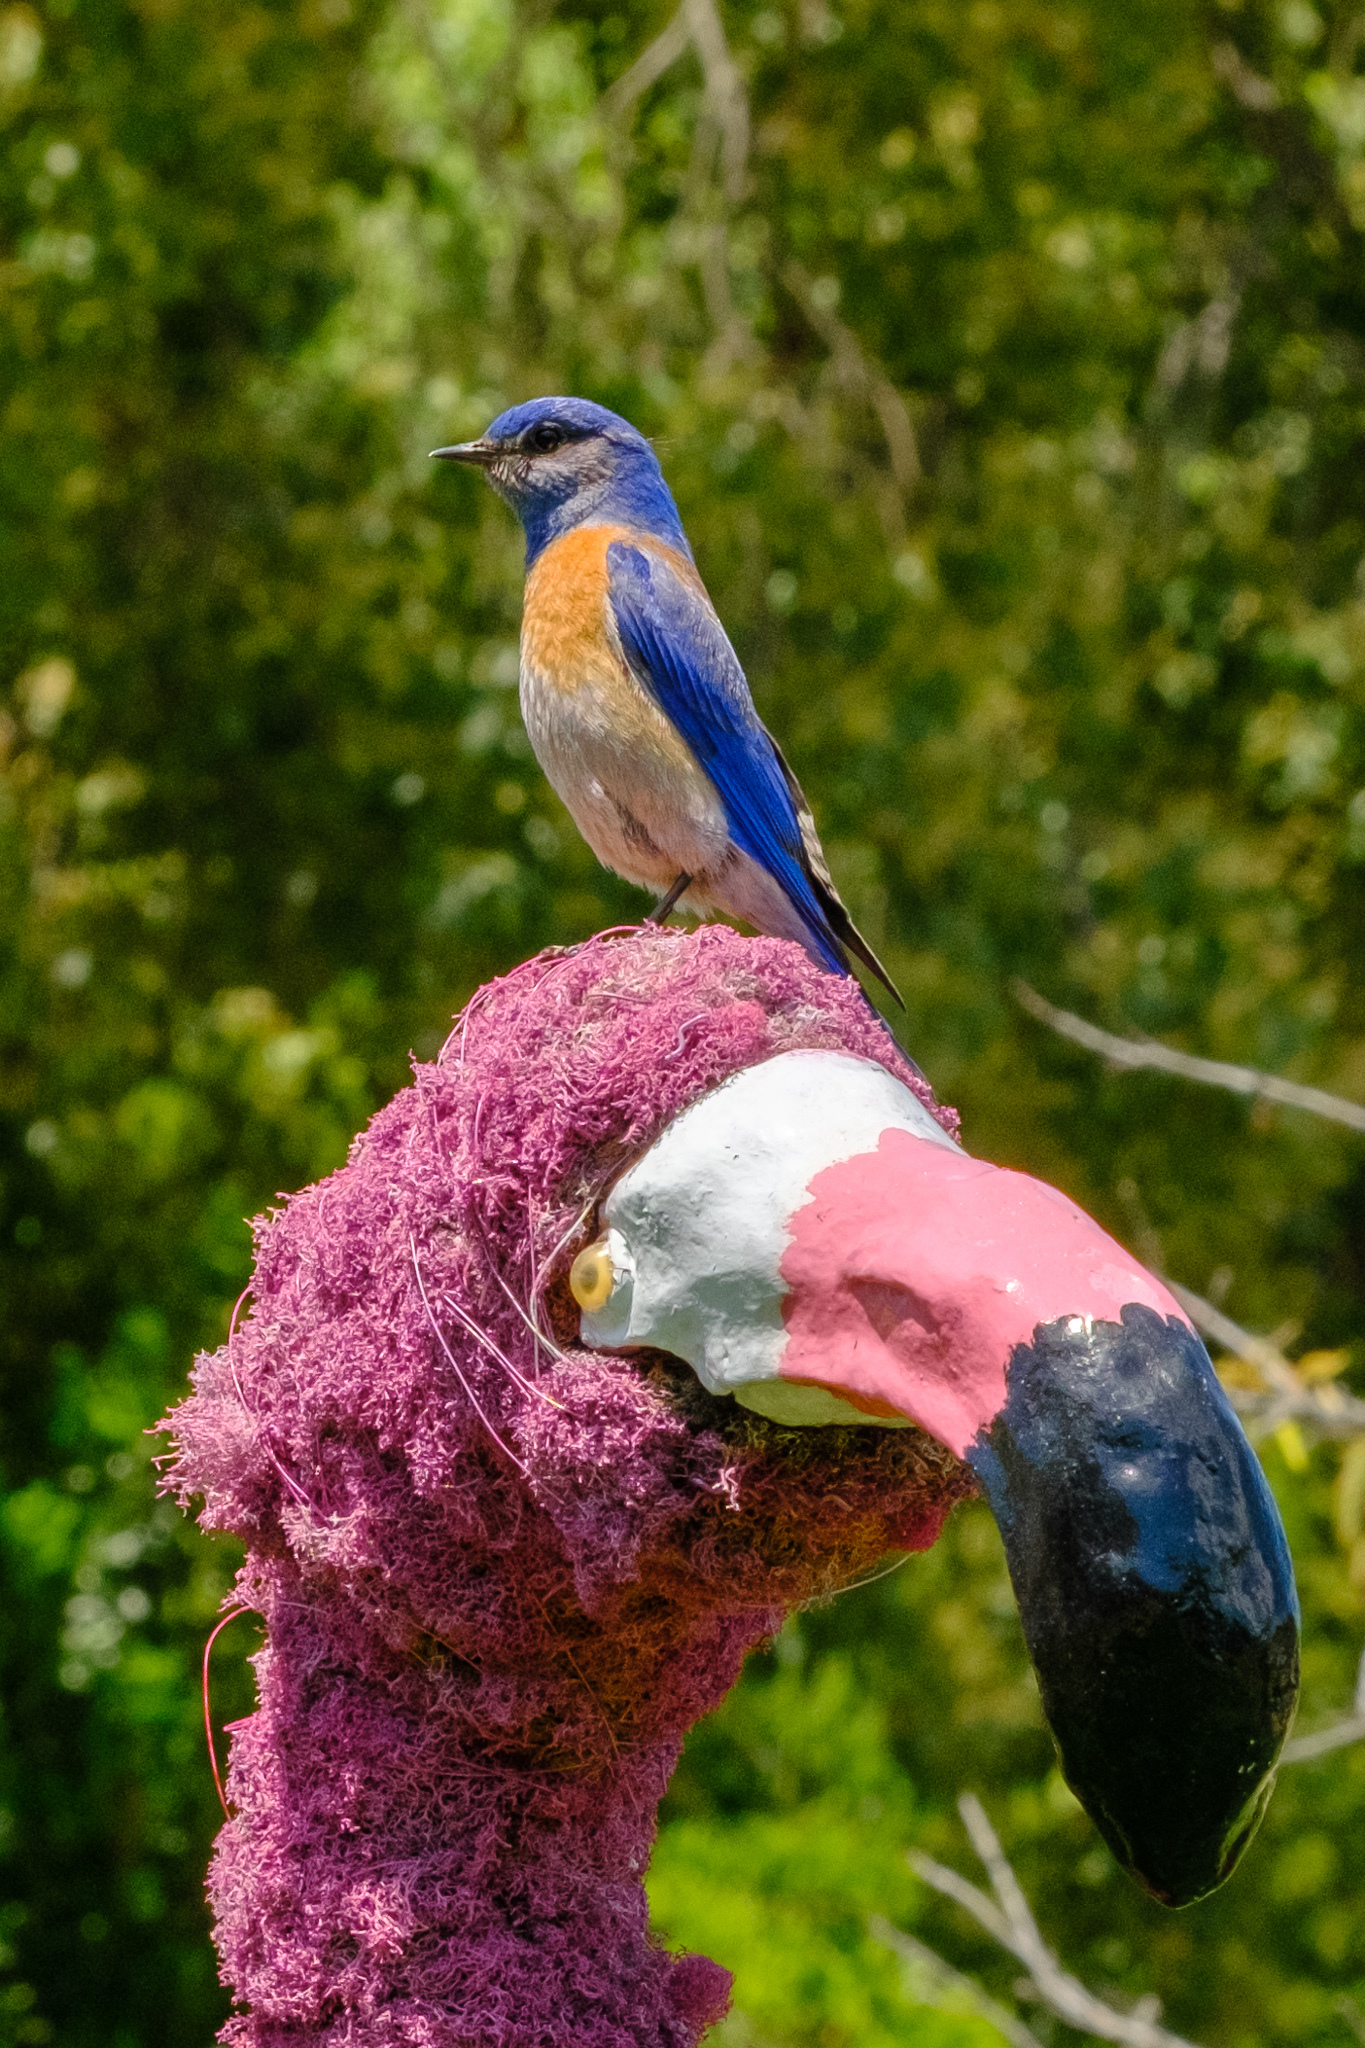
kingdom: Animalia
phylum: Chordata
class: Aves
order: Passeriformes
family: Turdidae
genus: Sialia
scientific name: Sialia mexicana
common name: Western bluebird
